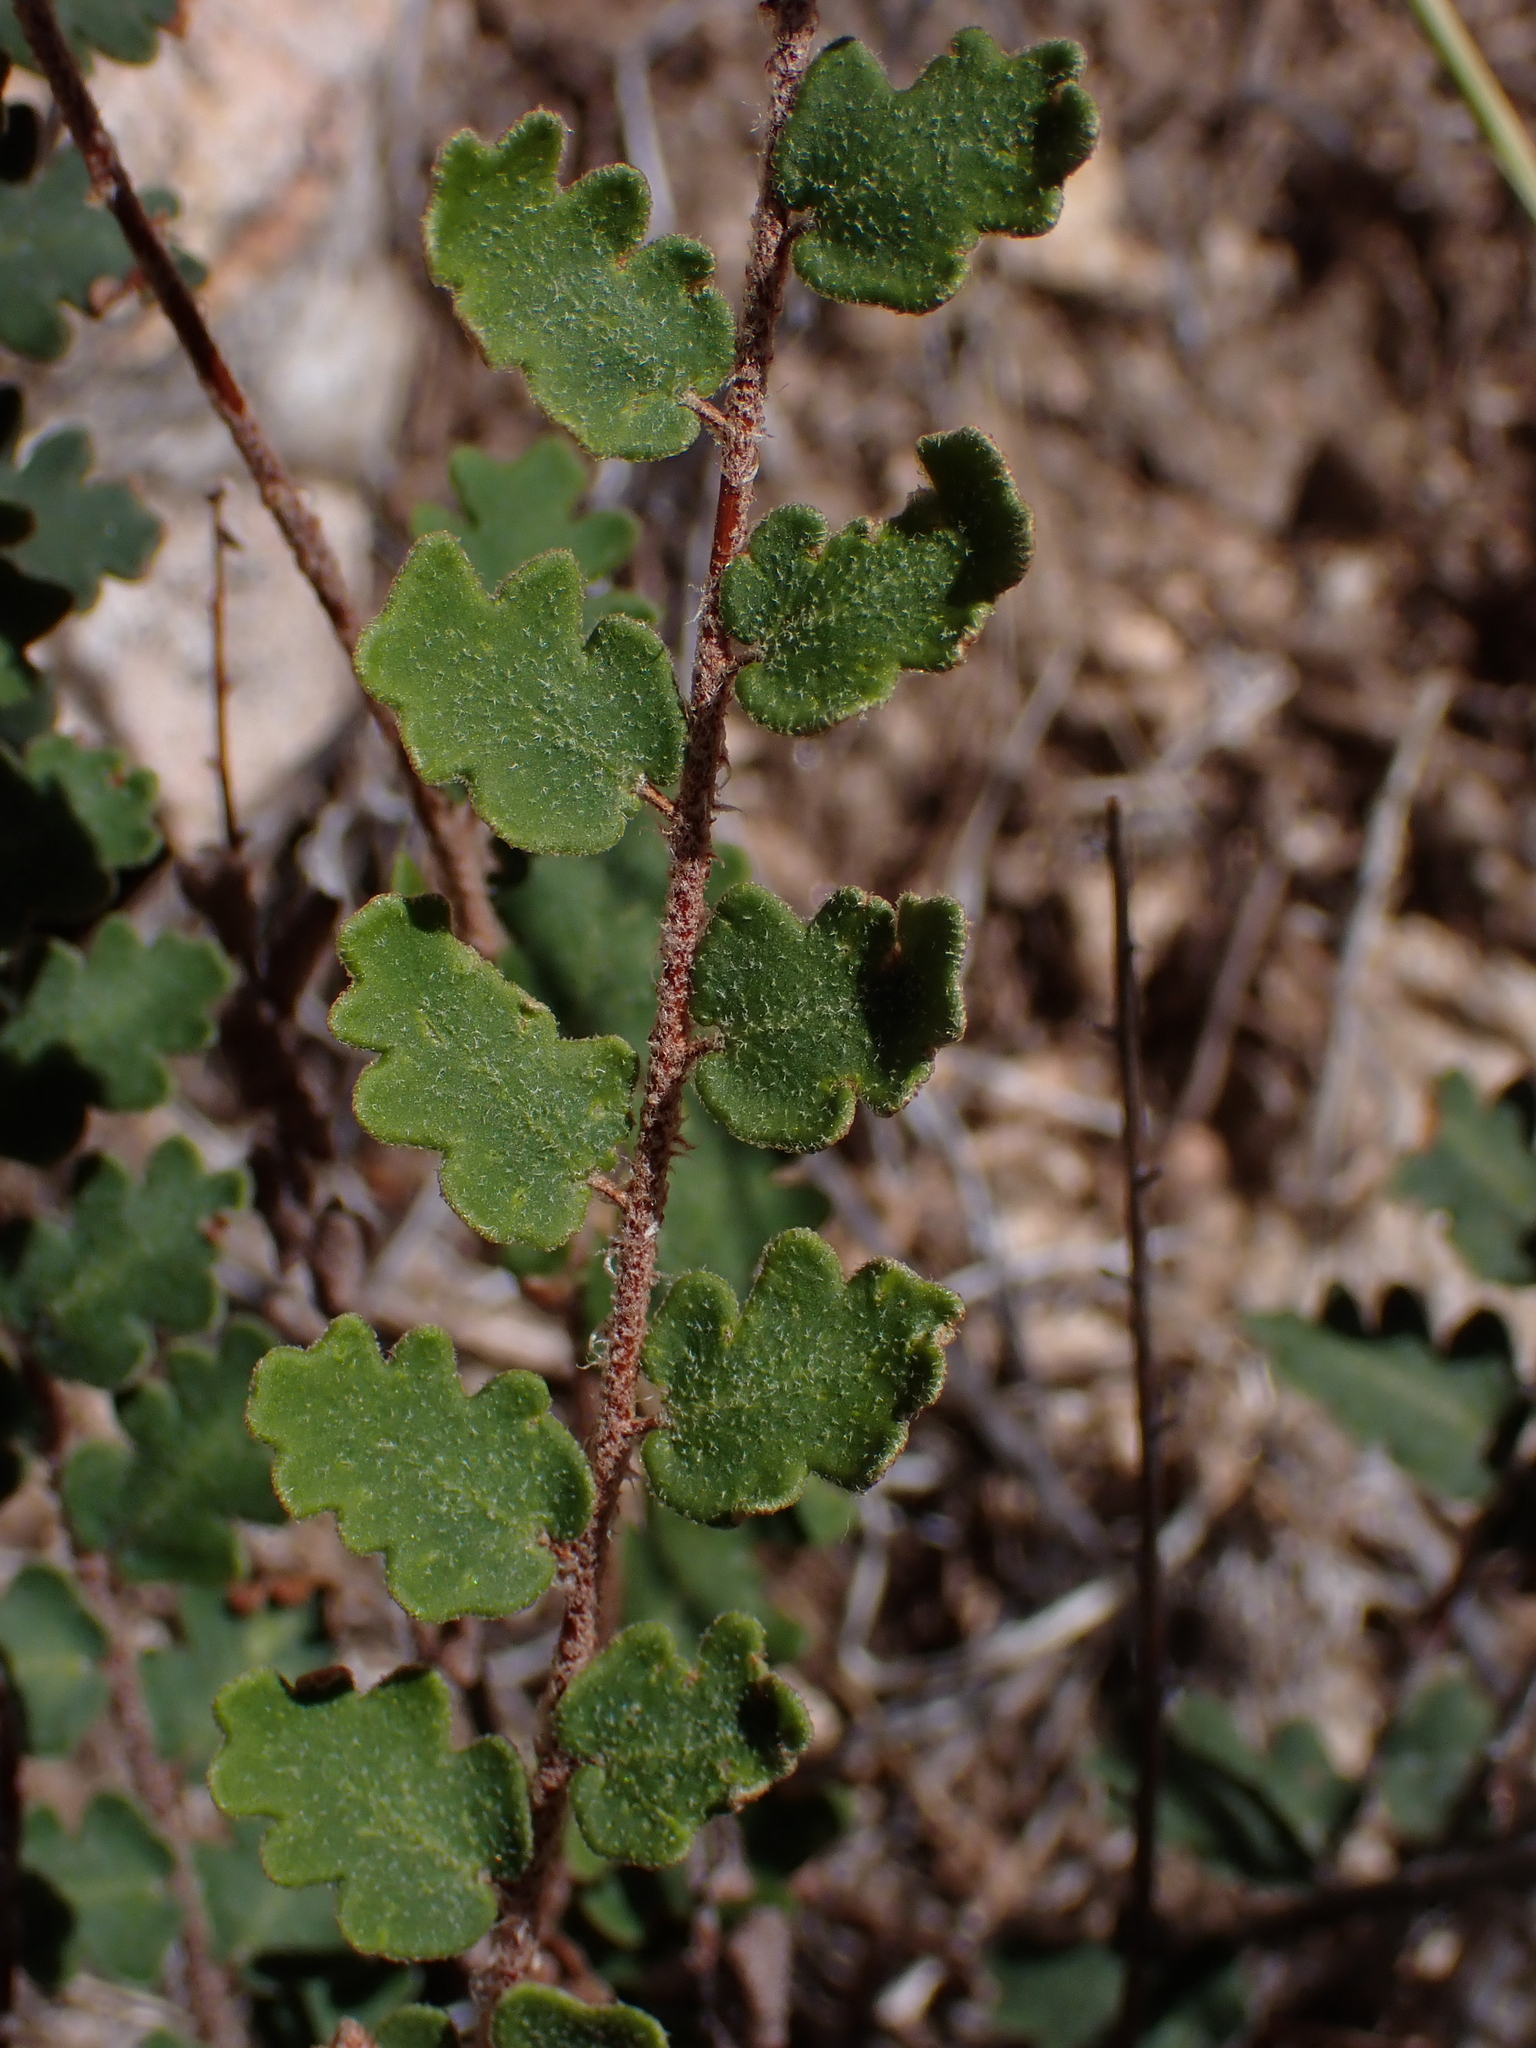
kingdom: Plantae
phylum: Tracheophyta
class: Polypodiopsida
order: Polypodiales
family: Pteridaceae
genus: Astrolepis
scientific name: Astrolepis sinuata
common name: Wavy scaly cloakfern
